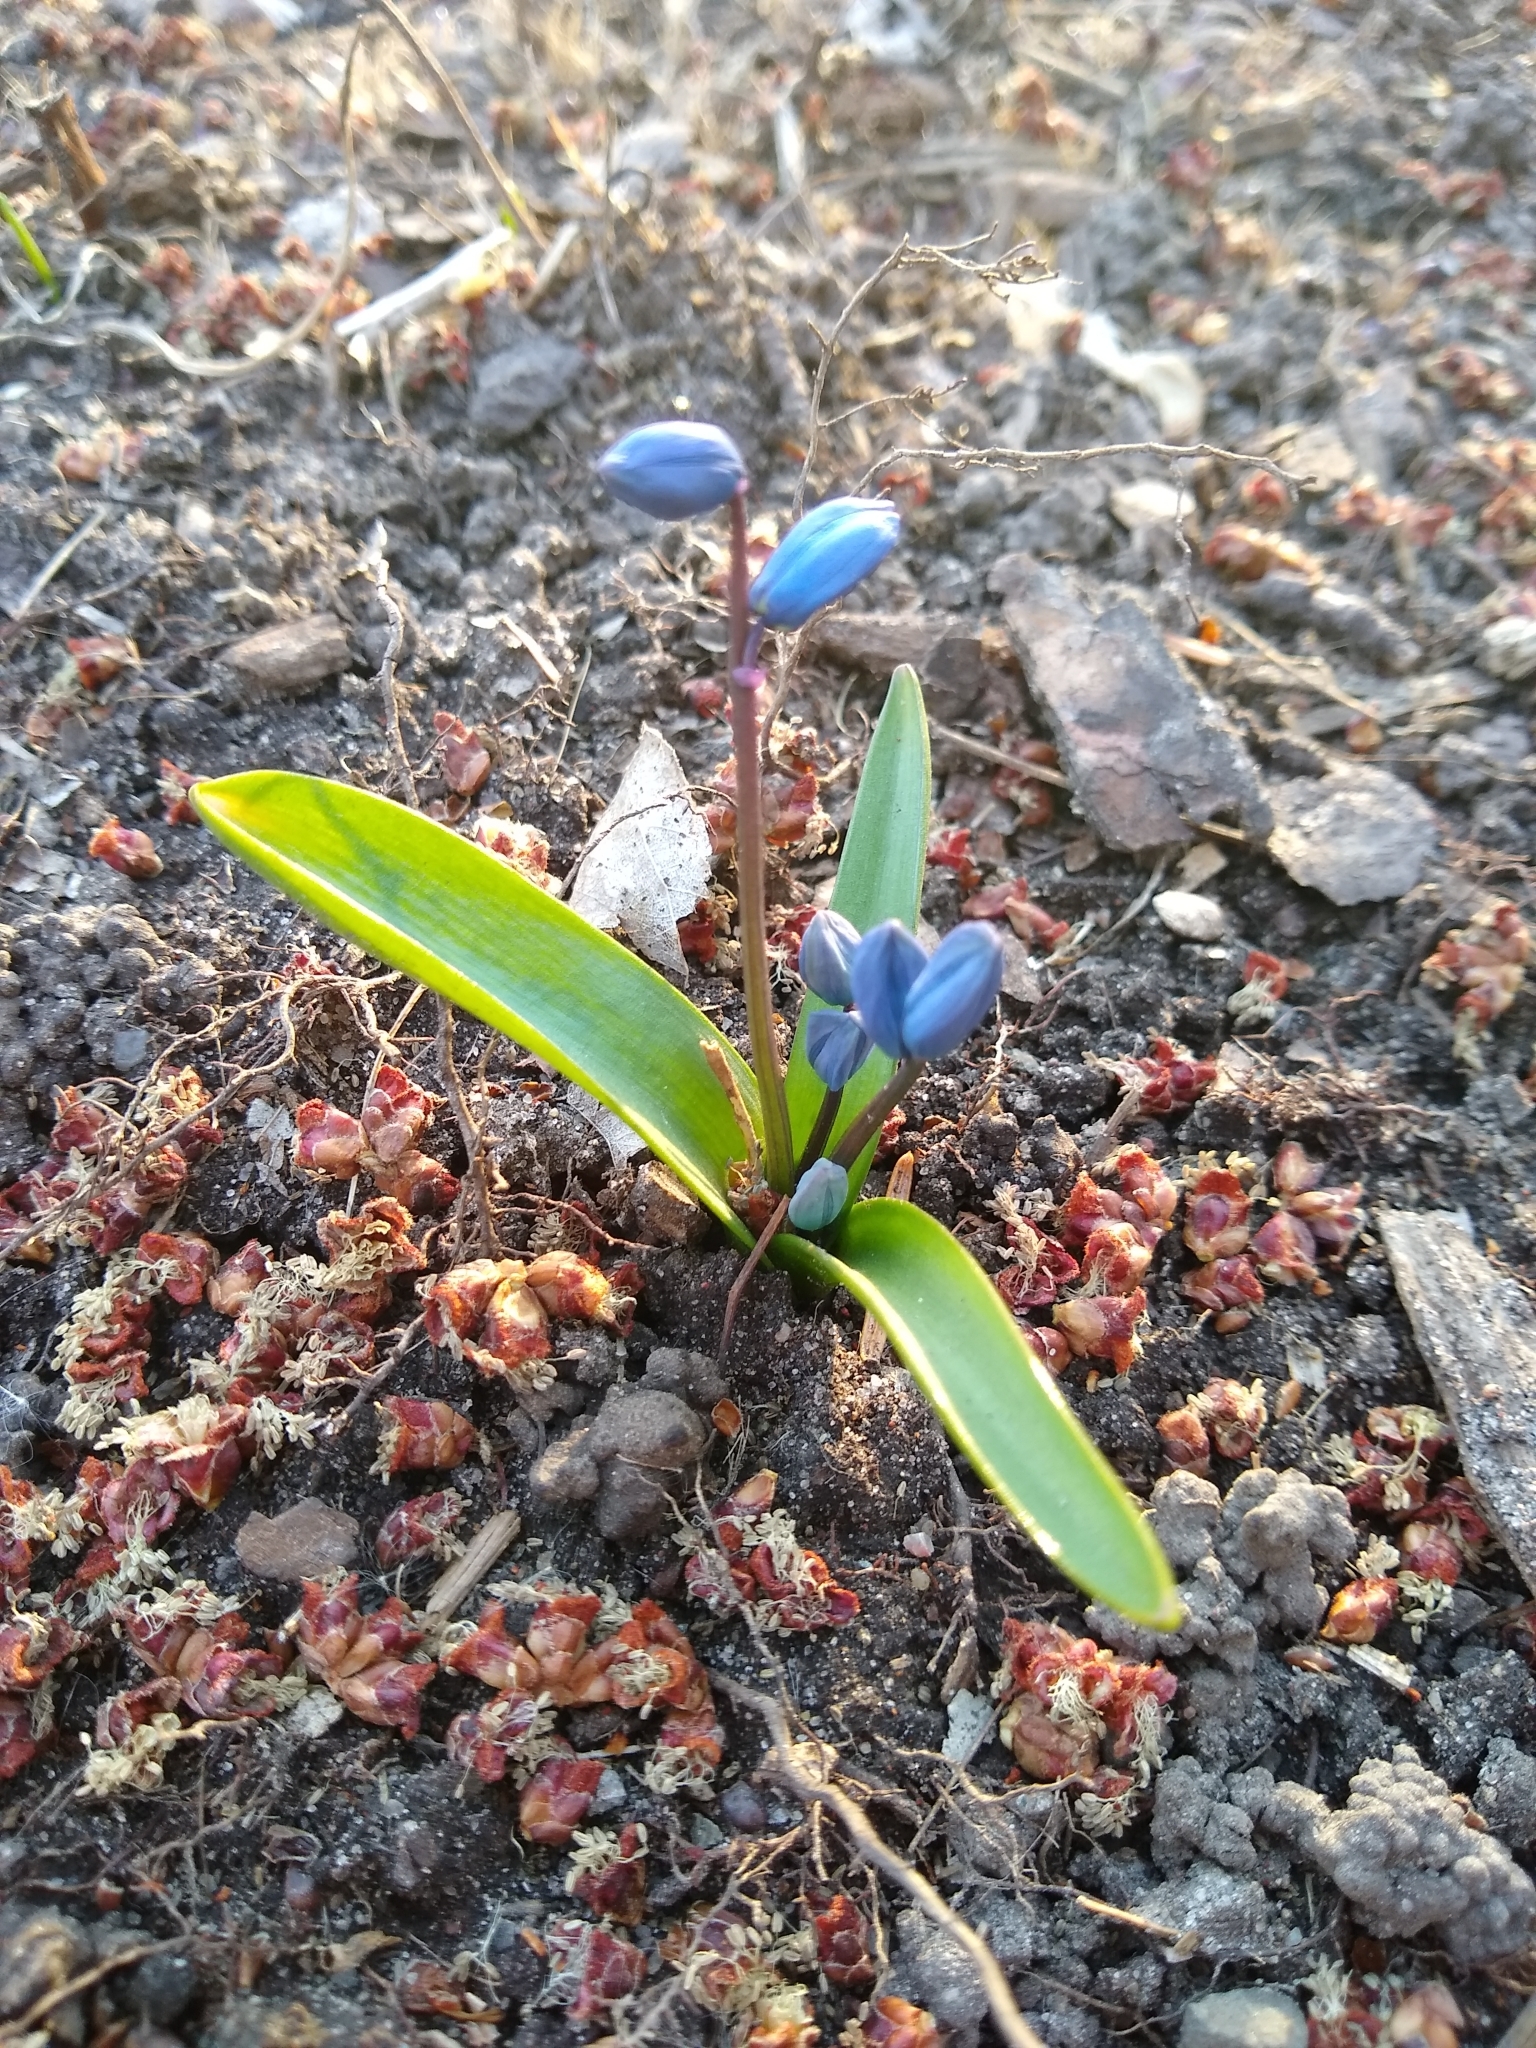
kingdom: Plantae
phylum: Tracheophyta
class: Liliopsida
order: Asparagales
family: Asparagaceae
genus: Scilla
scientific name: Scilla siberica
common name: Siberian squill
